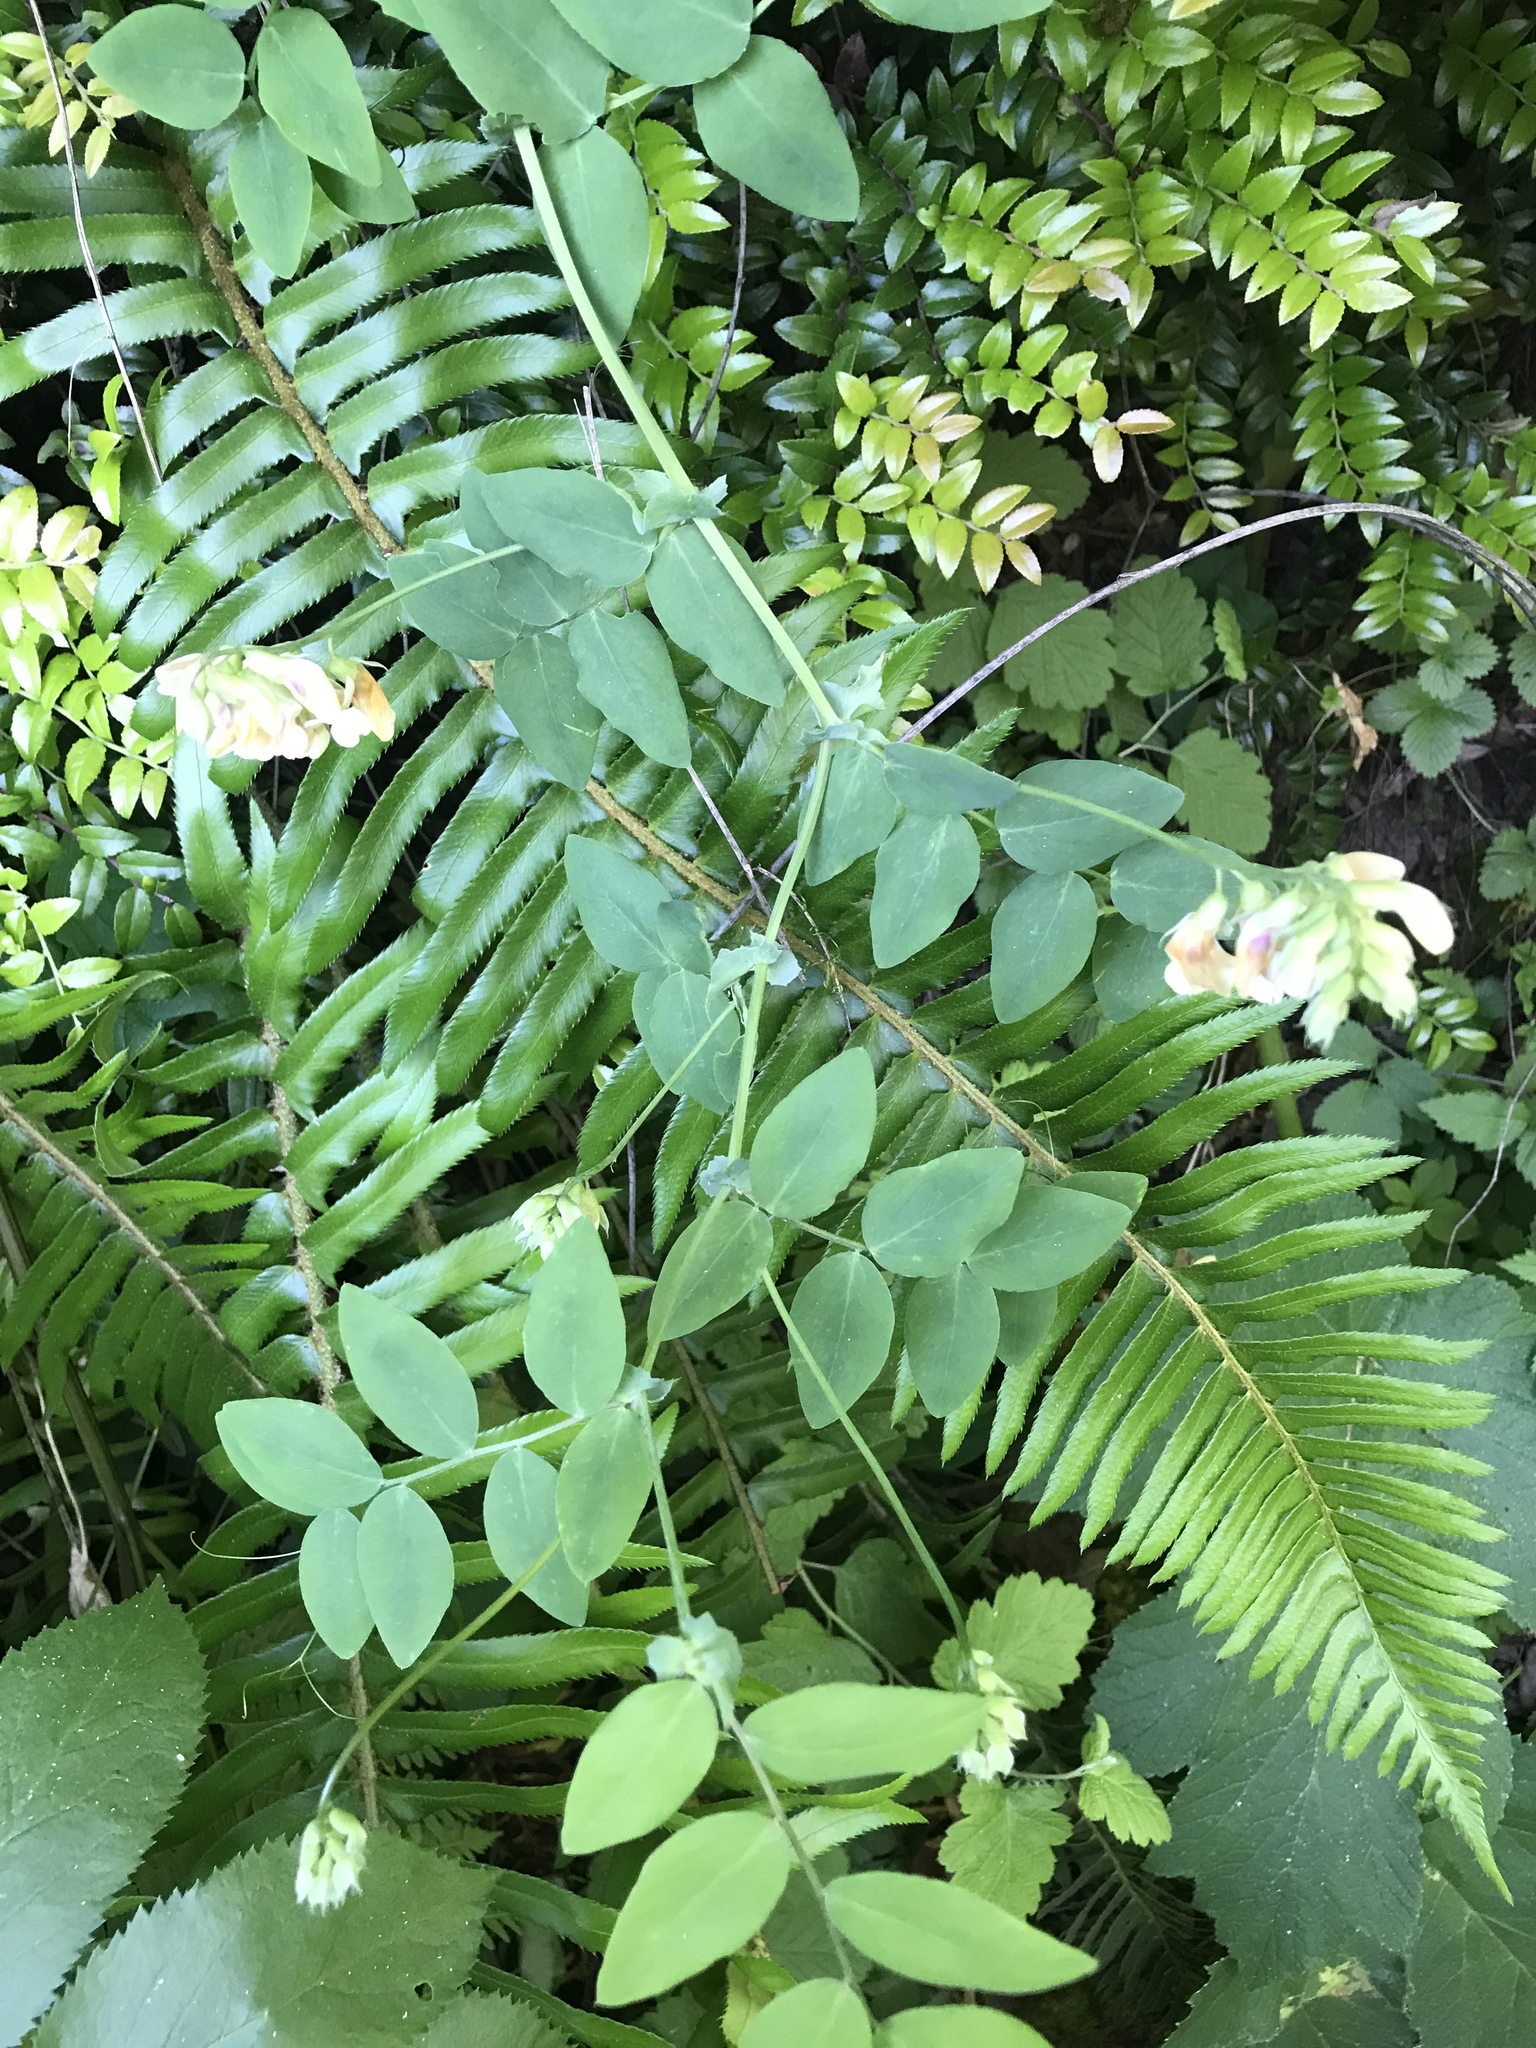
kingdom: Plantae
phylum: Tracheophyta
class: Magnoliopsida
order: Fabales
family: Fabaceae
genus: Lathyrus
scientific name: Lathyrus vestitus
